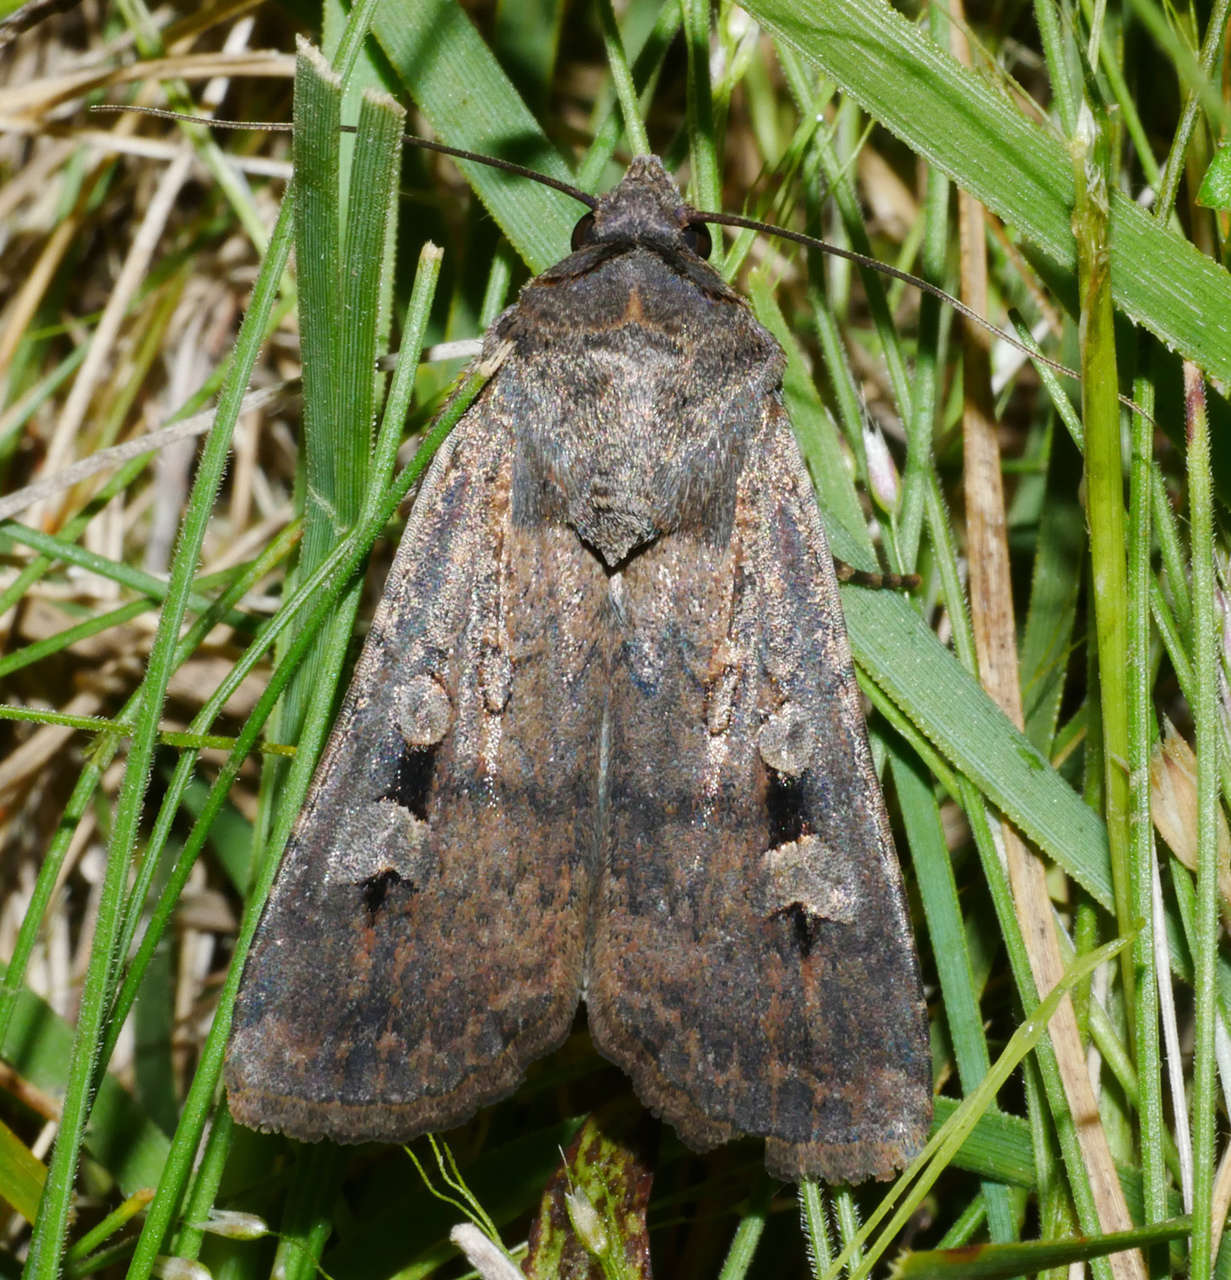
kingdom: Animalia
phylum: Arthropoda
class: Insecta
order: Lepidoptera
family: Noctuidae
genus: Agrotis
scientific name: Agrotis infusa
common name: Bogong moth
